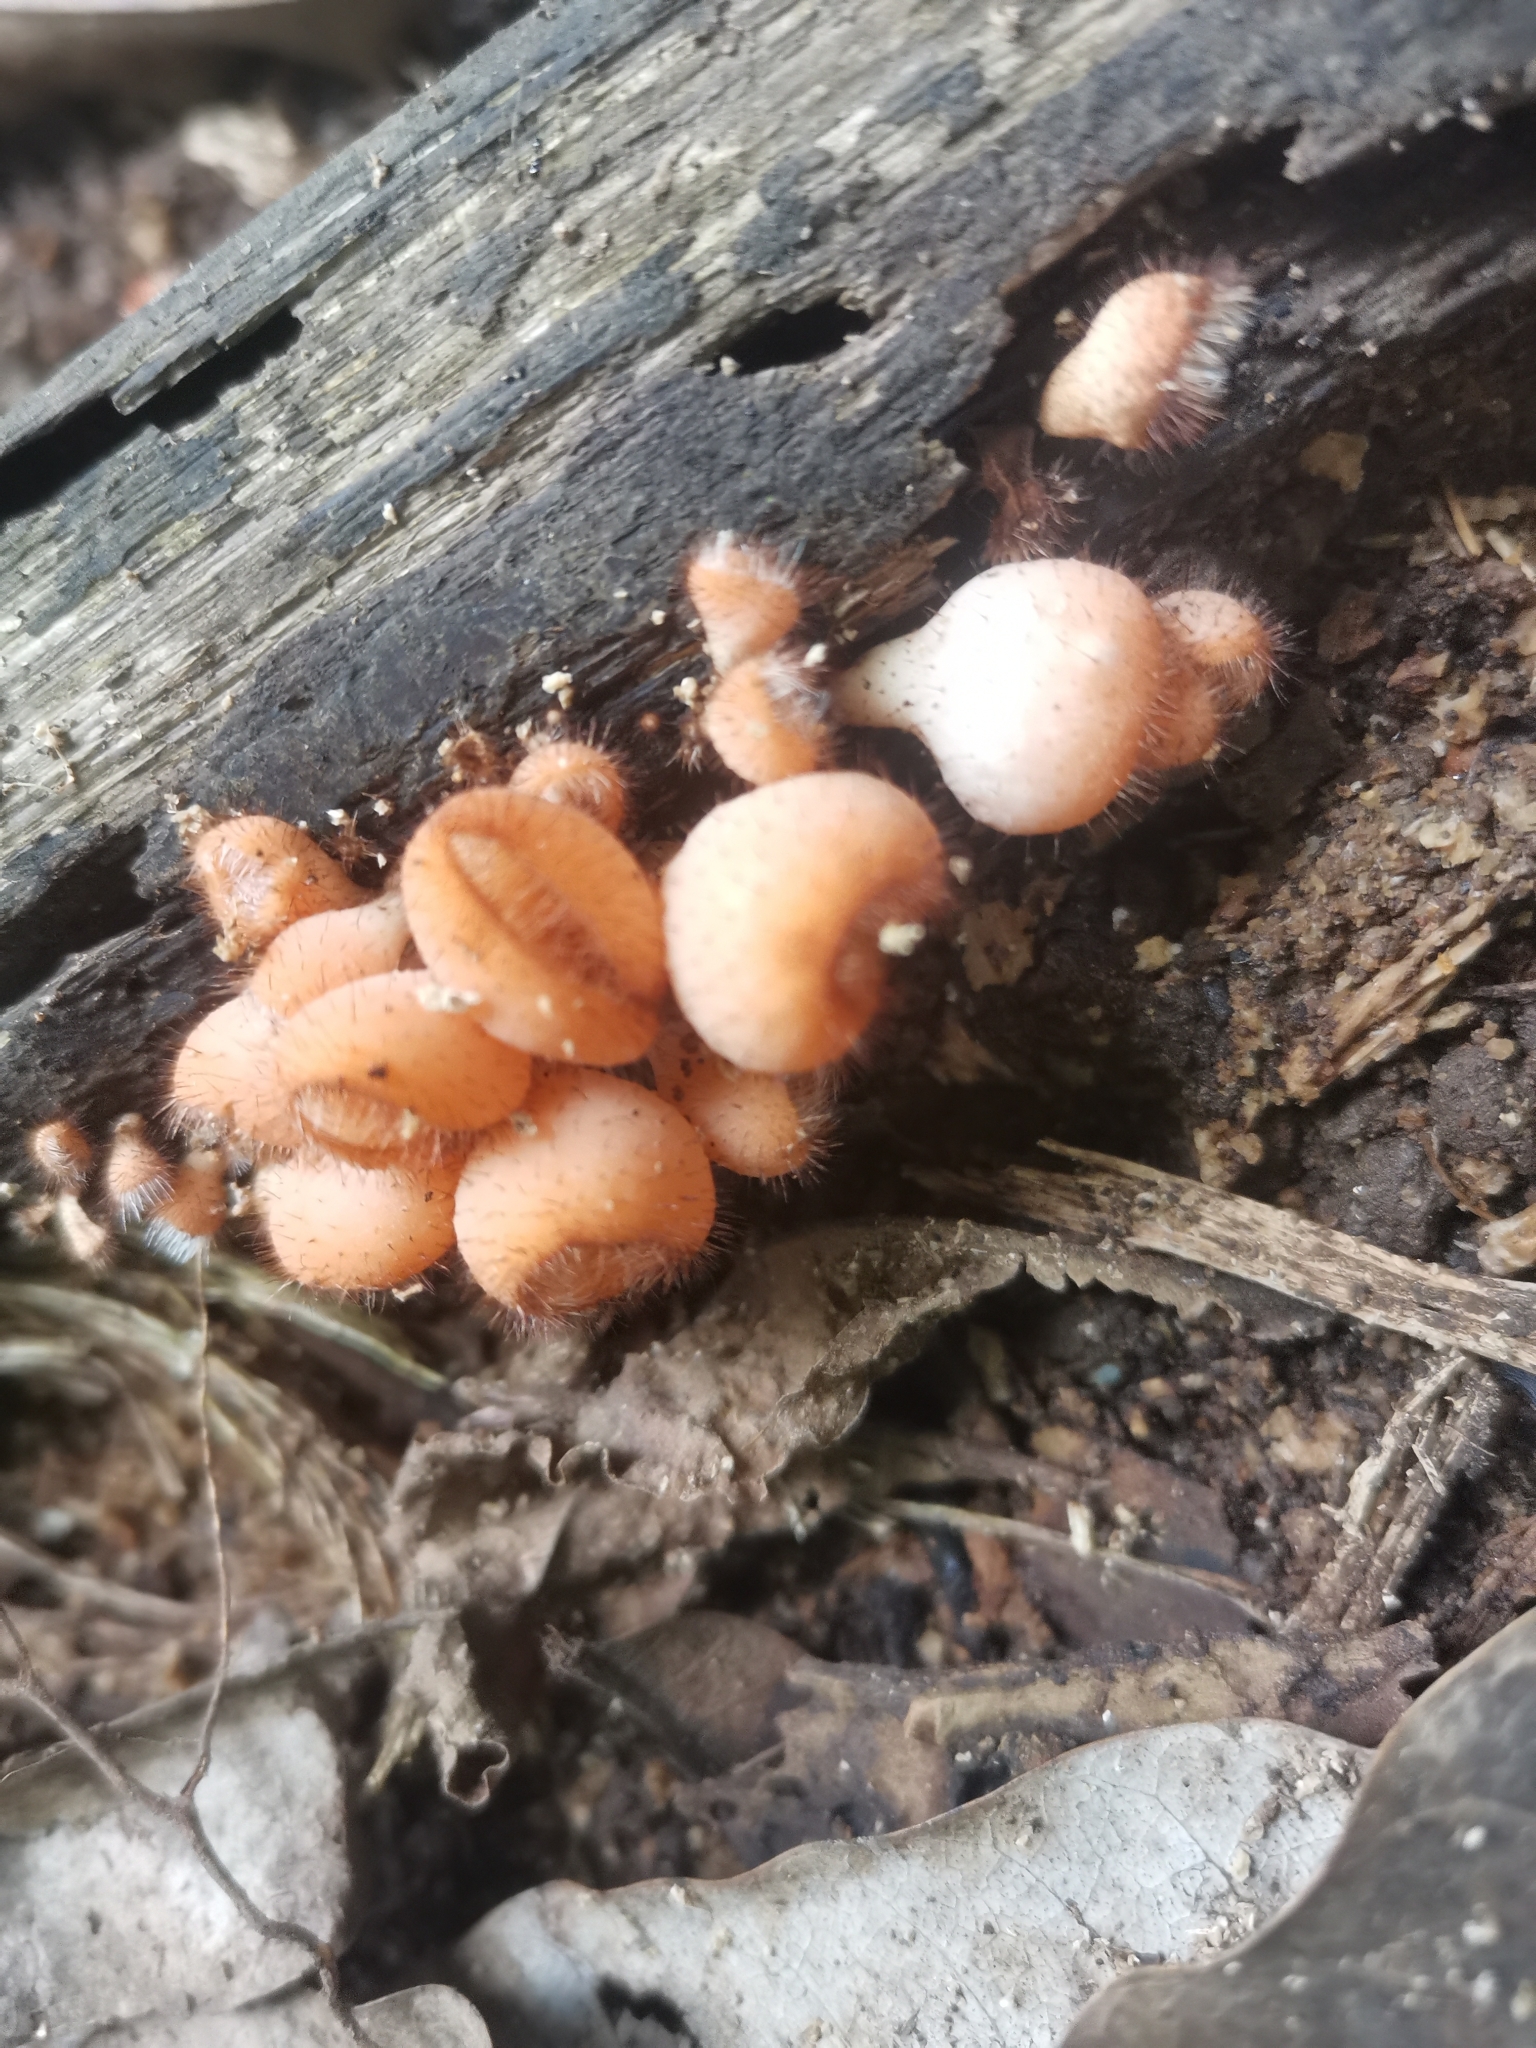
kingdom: Fungi
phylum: Ascomycota
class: Pezizomycetes
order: Pezizales
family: Sarcoscyphaceae
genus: Cookeina
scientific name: Cookeina tricholoma
